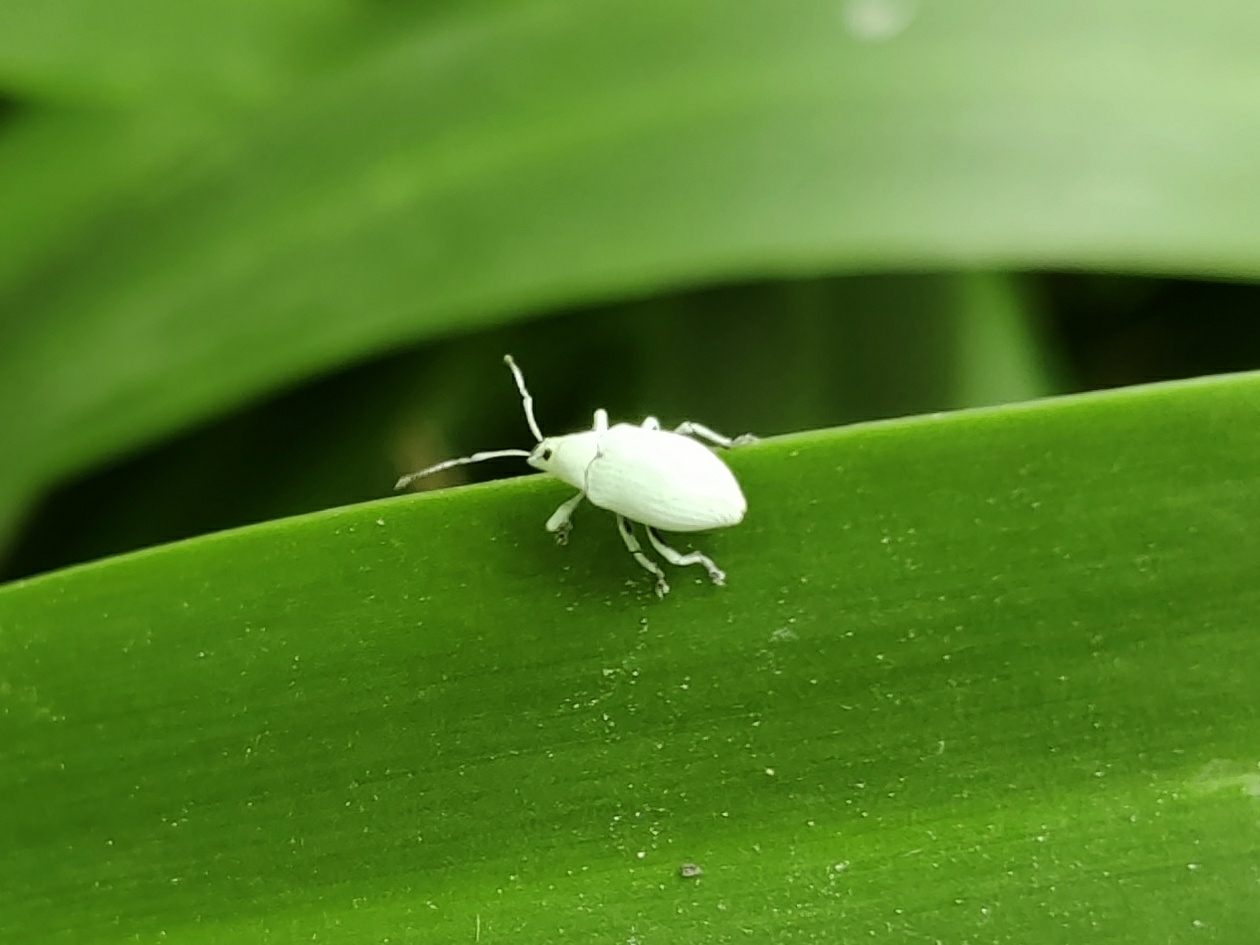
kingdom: Animalia
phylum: Arthropoda
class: Insecta
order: Coleoptera
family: Curculionidae
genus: Myllocerus
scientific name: Myllocerus paetus
